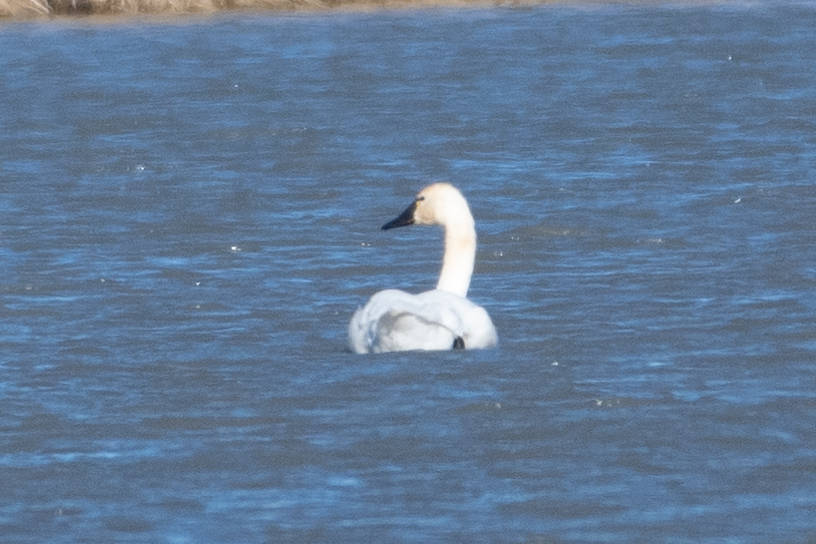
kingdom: Animalia
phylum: Chordata
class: Aves
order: Anseriformes
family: Anatidae
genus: Cygnus
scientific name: Cygnus columbianus
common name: Tundra swan
